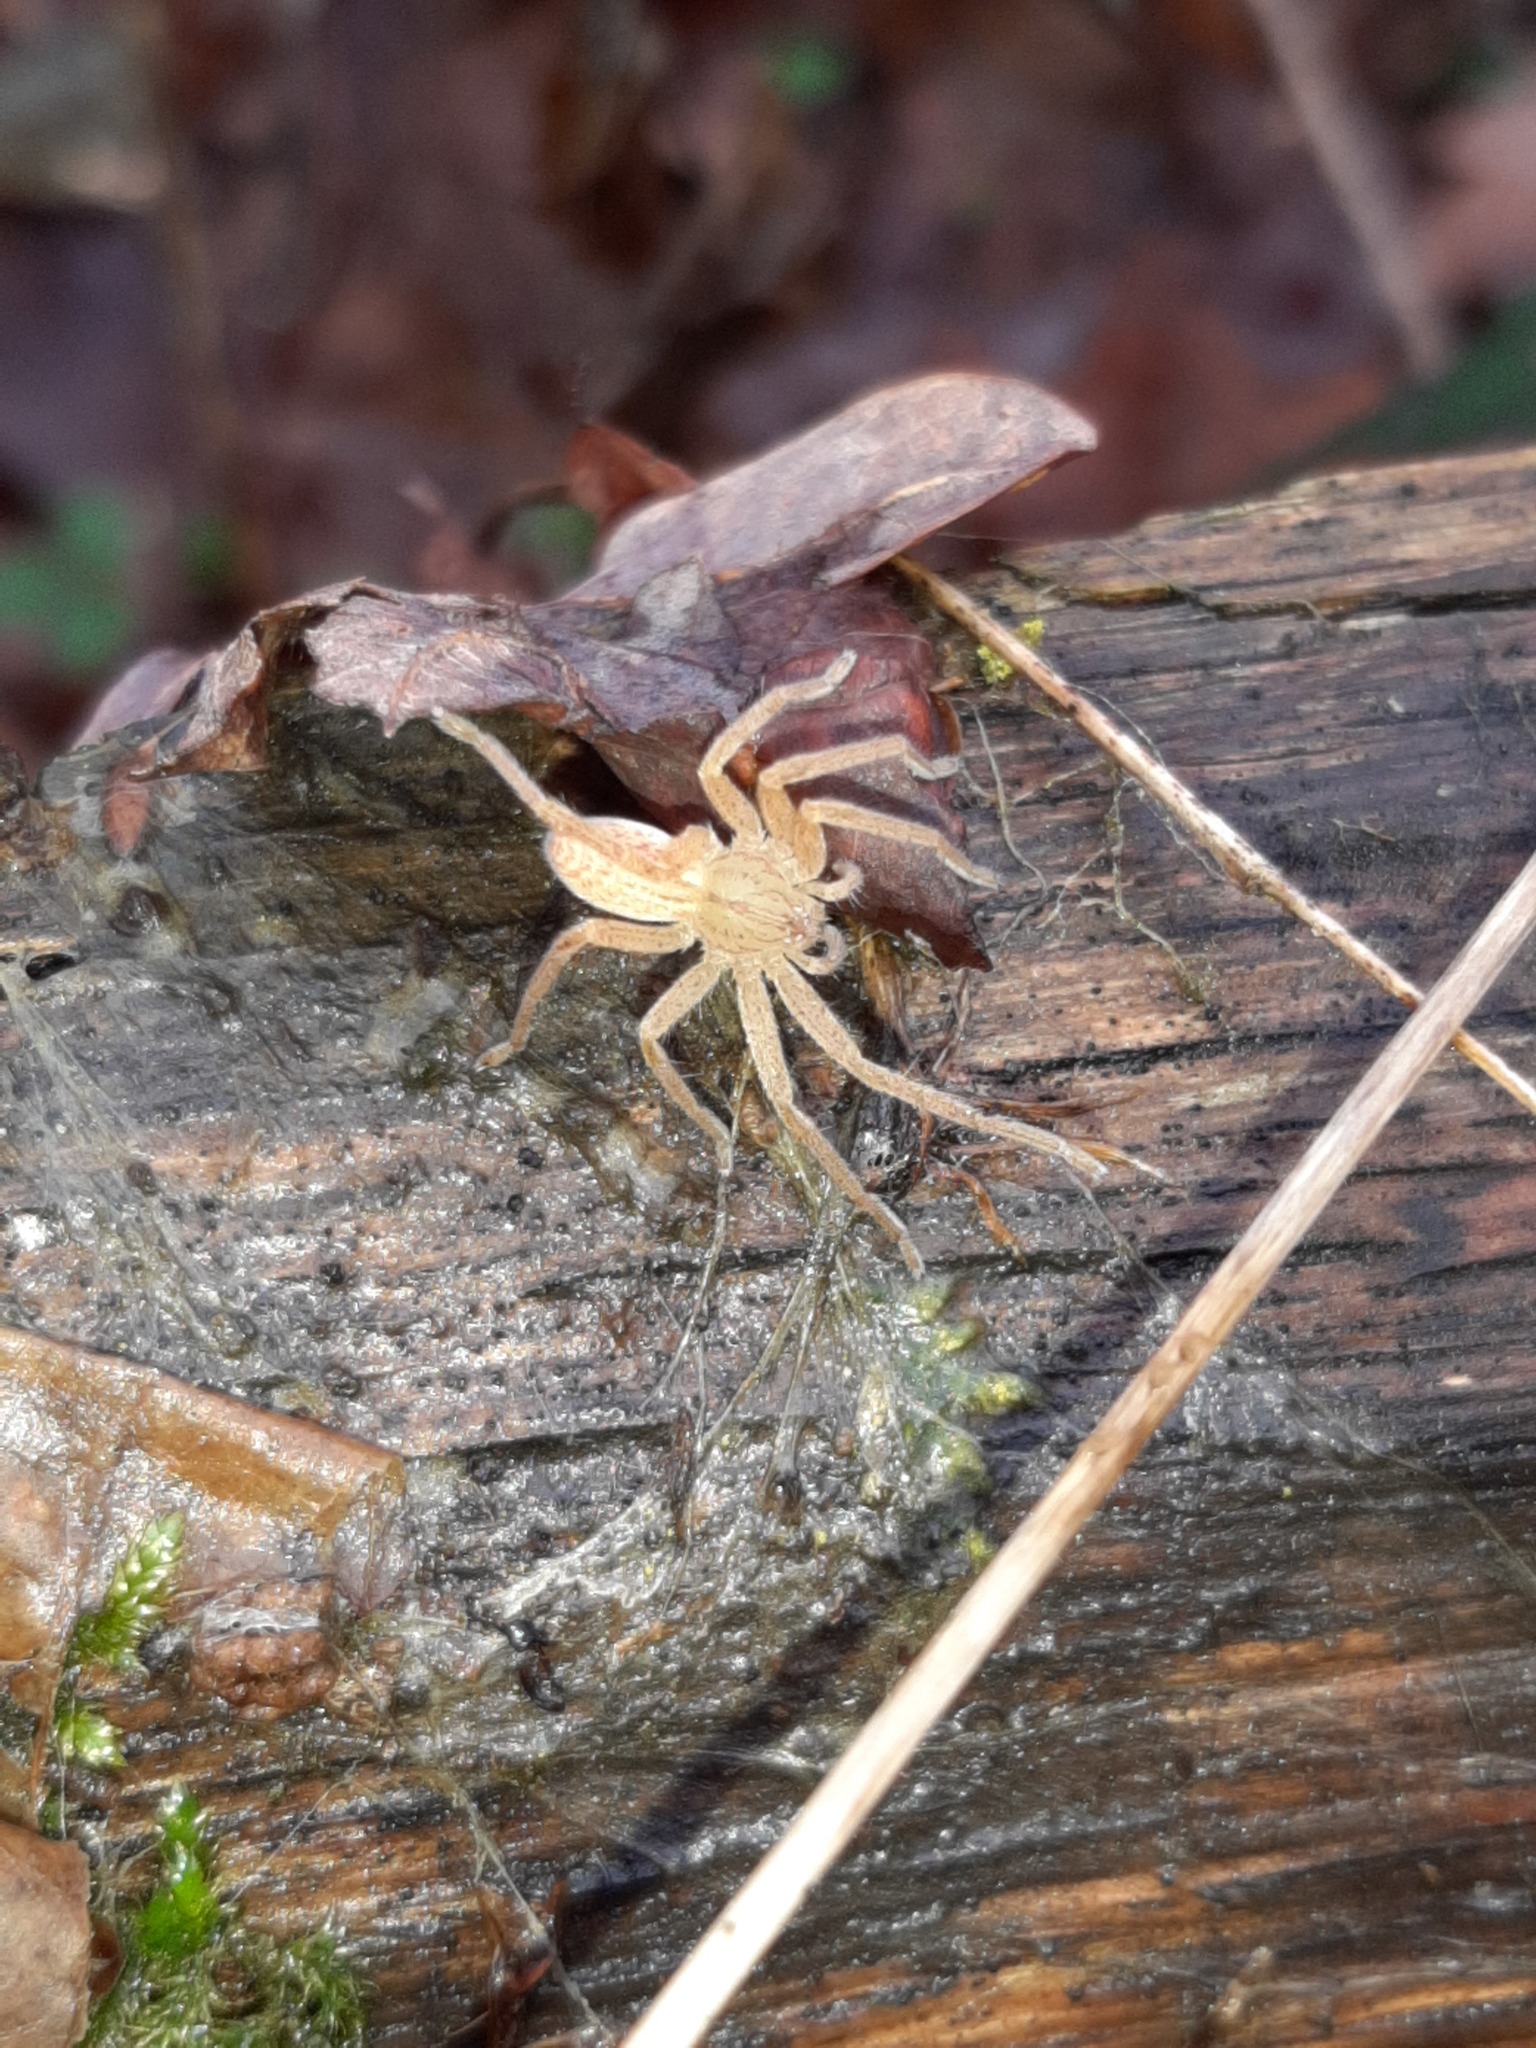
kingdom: Animalia
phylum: Arthropoda
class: Arachnida
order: Araneae
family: Sparassidae
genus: Micrommata
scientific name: Micrommata virescens
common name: Green spider
